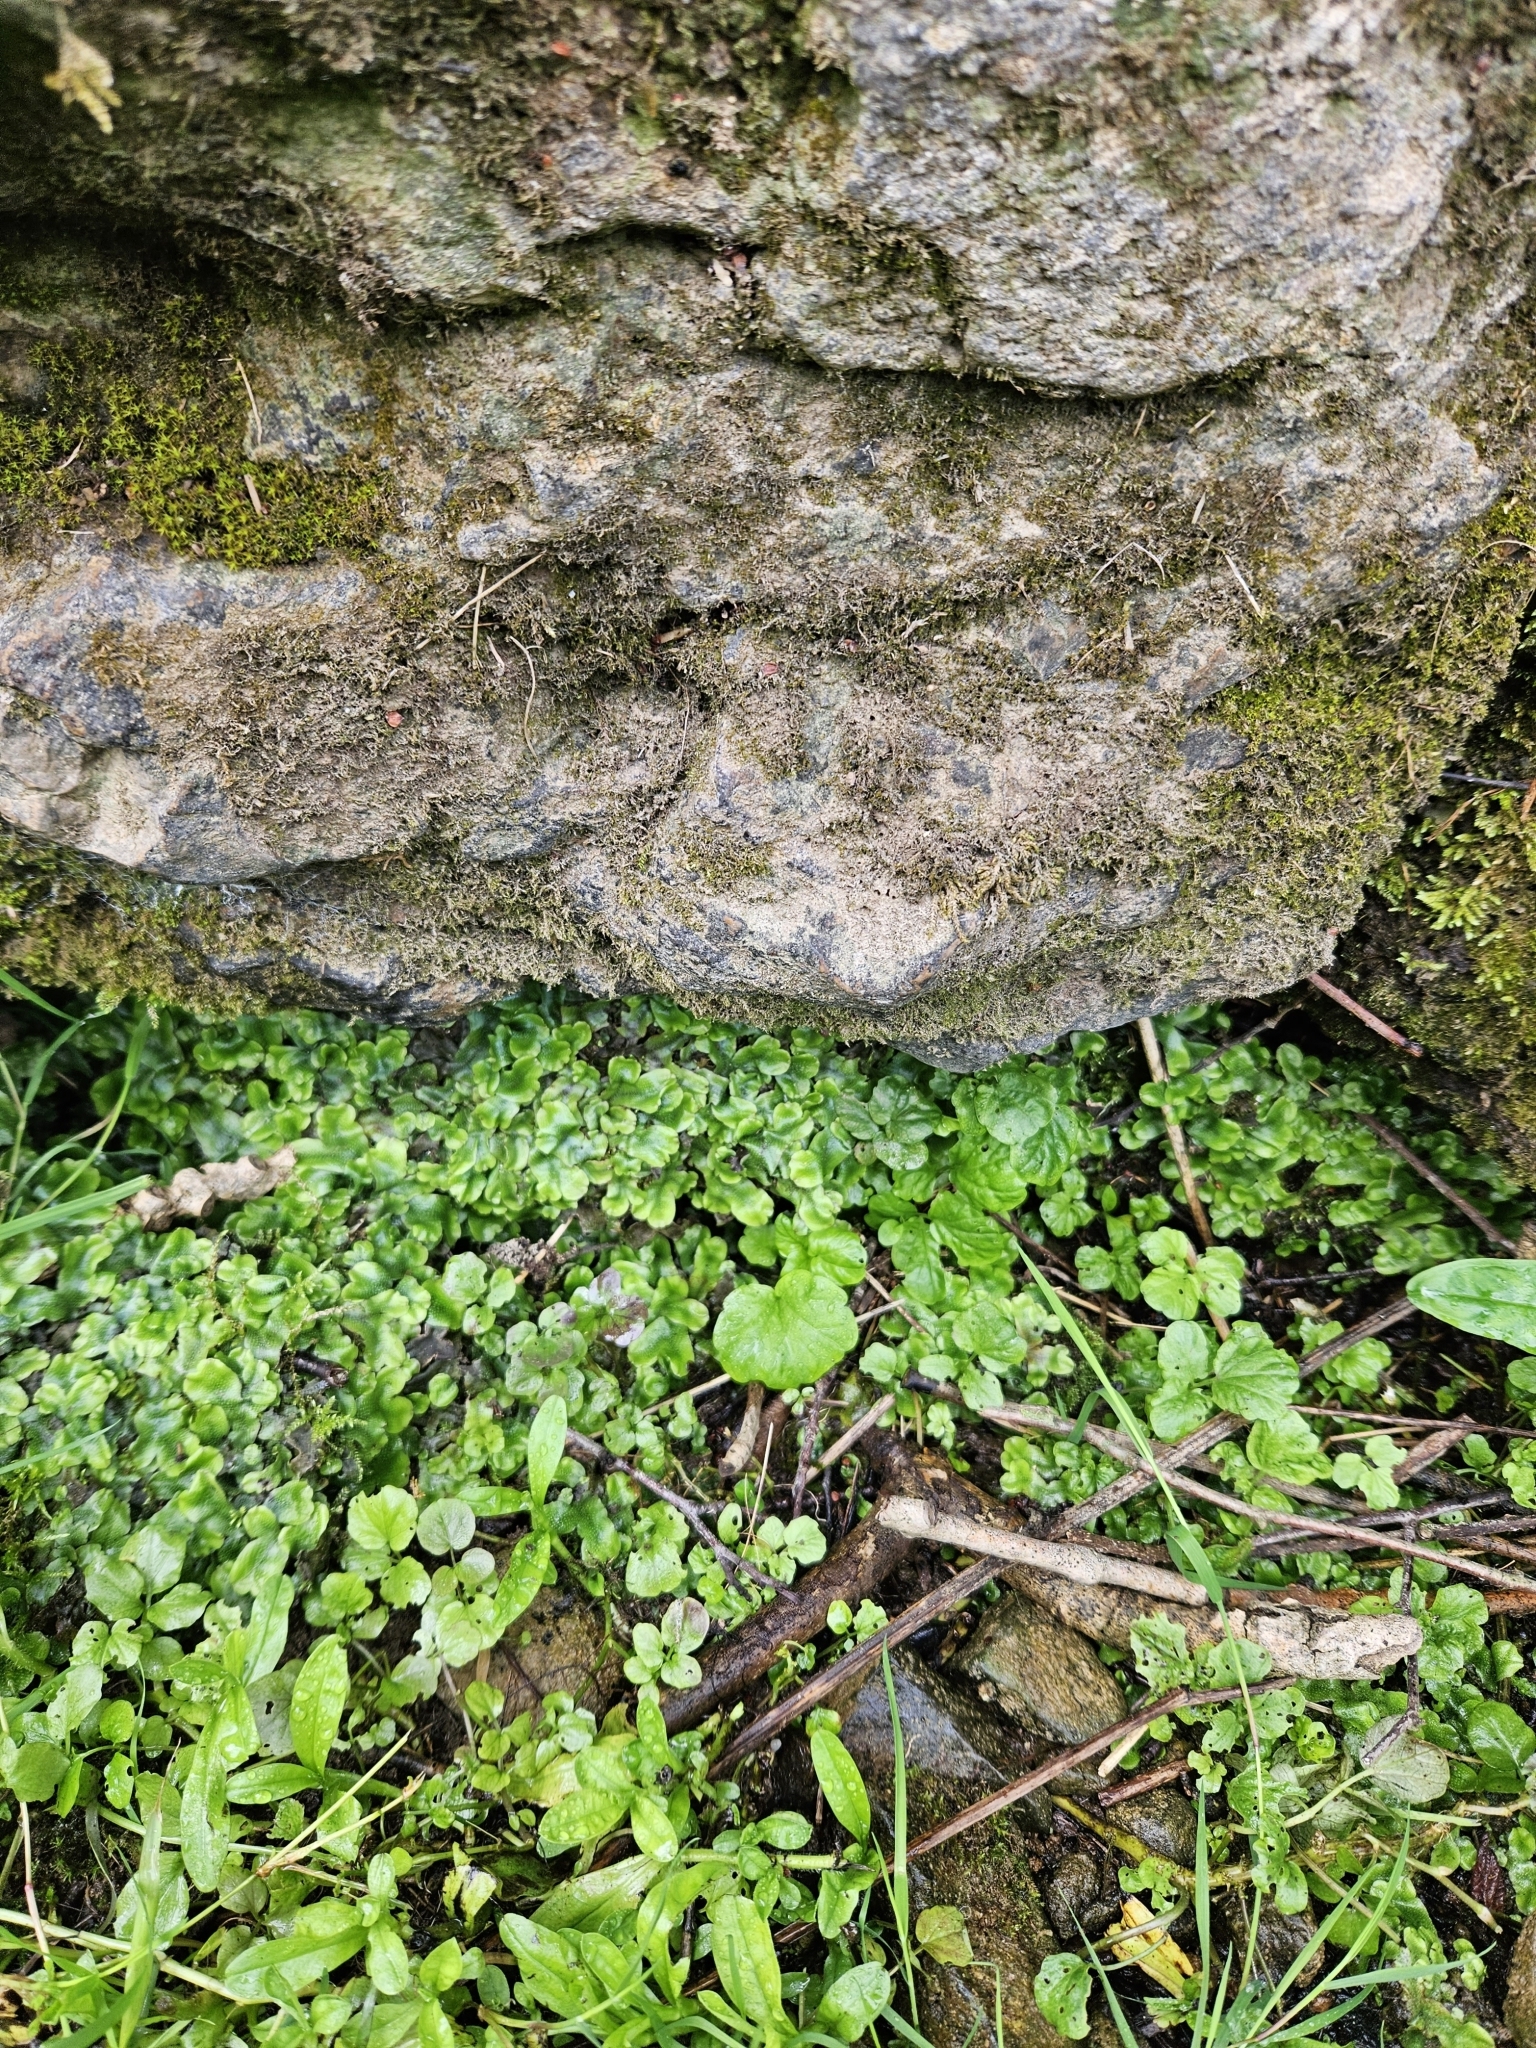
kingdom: Plantae
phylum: Marchantiophyta
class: Marchantiopsida
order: Marchantiales
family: Conocephalaceae
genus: Conocephalum
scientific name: Conocephalum conicum
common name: Great scented liverwort
